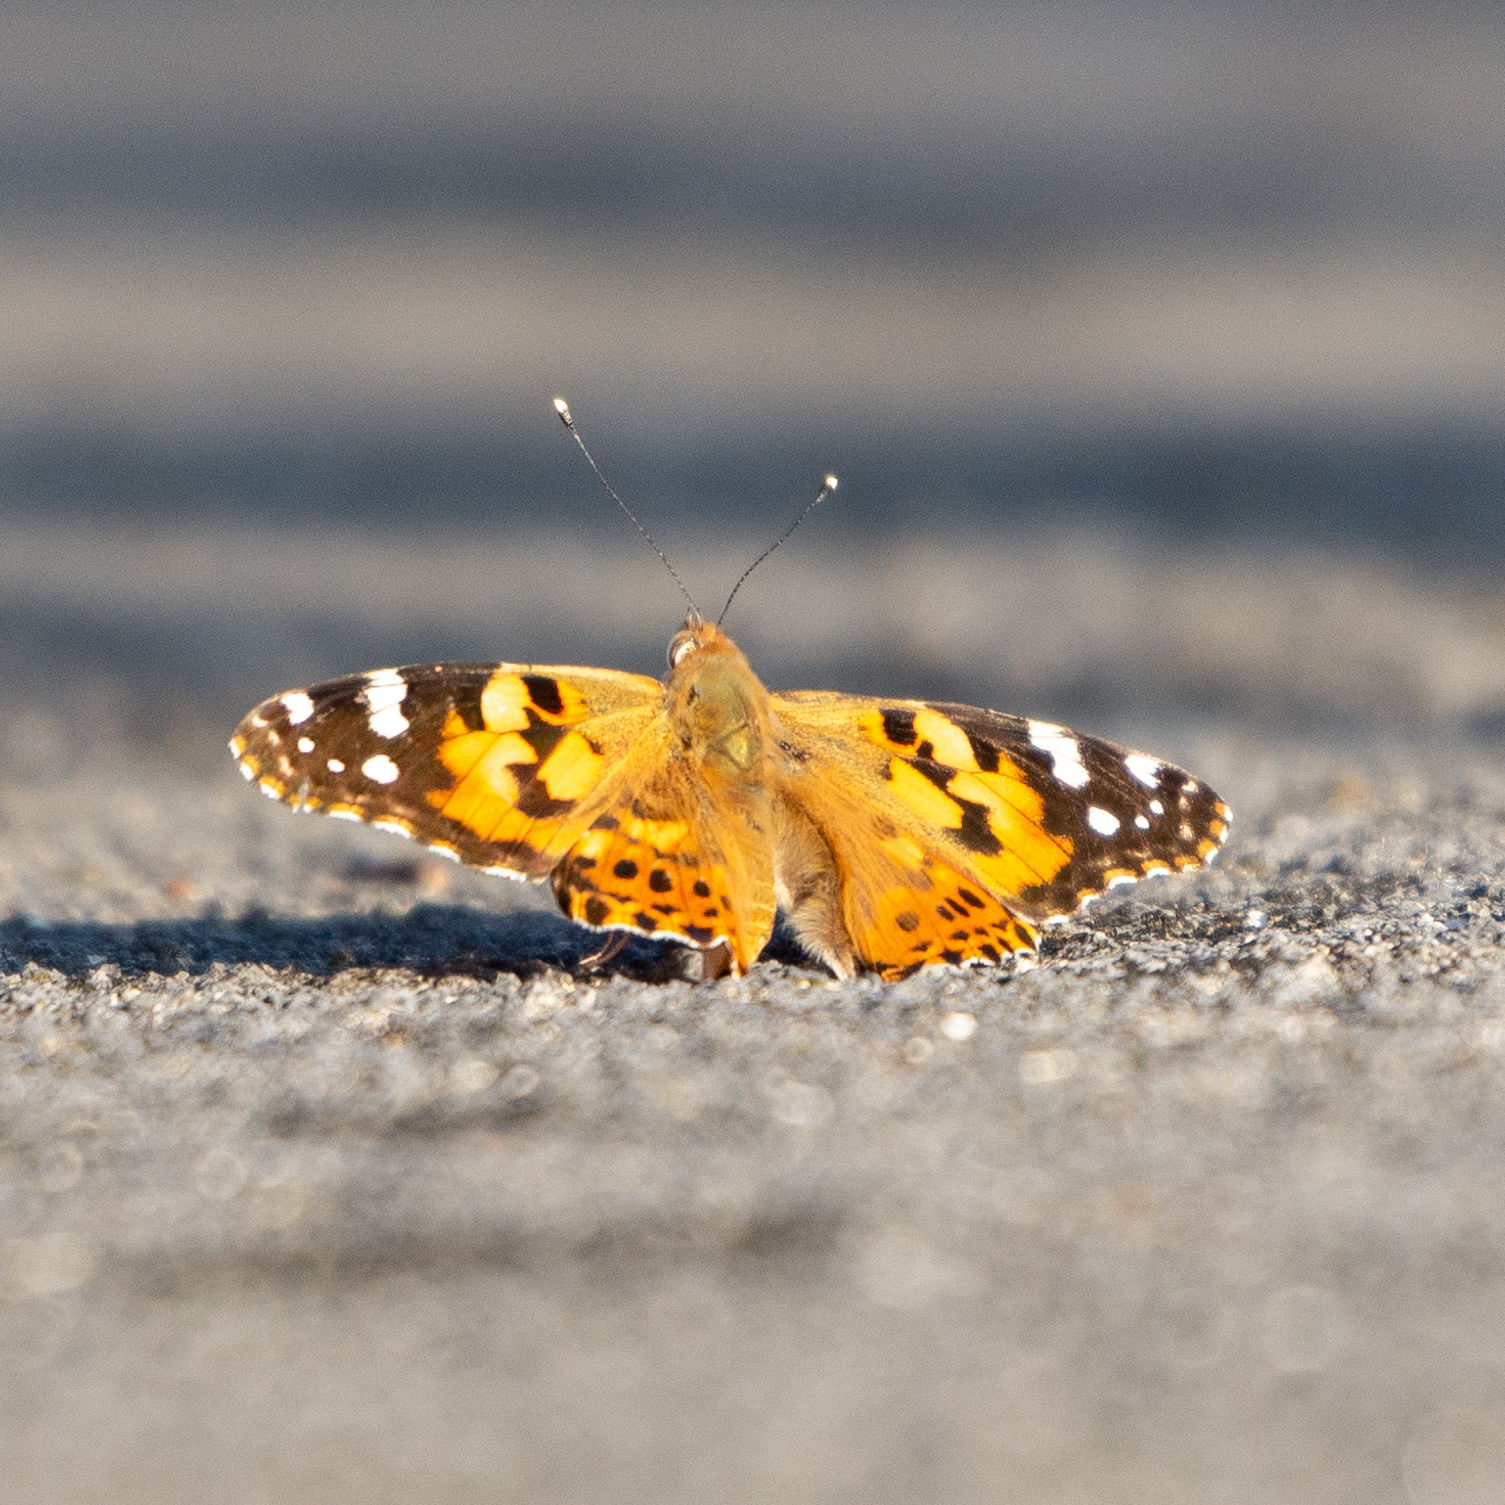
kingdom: Animalia
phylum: Arthropoda
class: Insecta
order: Lepidoptera
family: Nymphalidae
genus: Vanessa
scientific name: Vanessa cardui
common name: Painted lady
